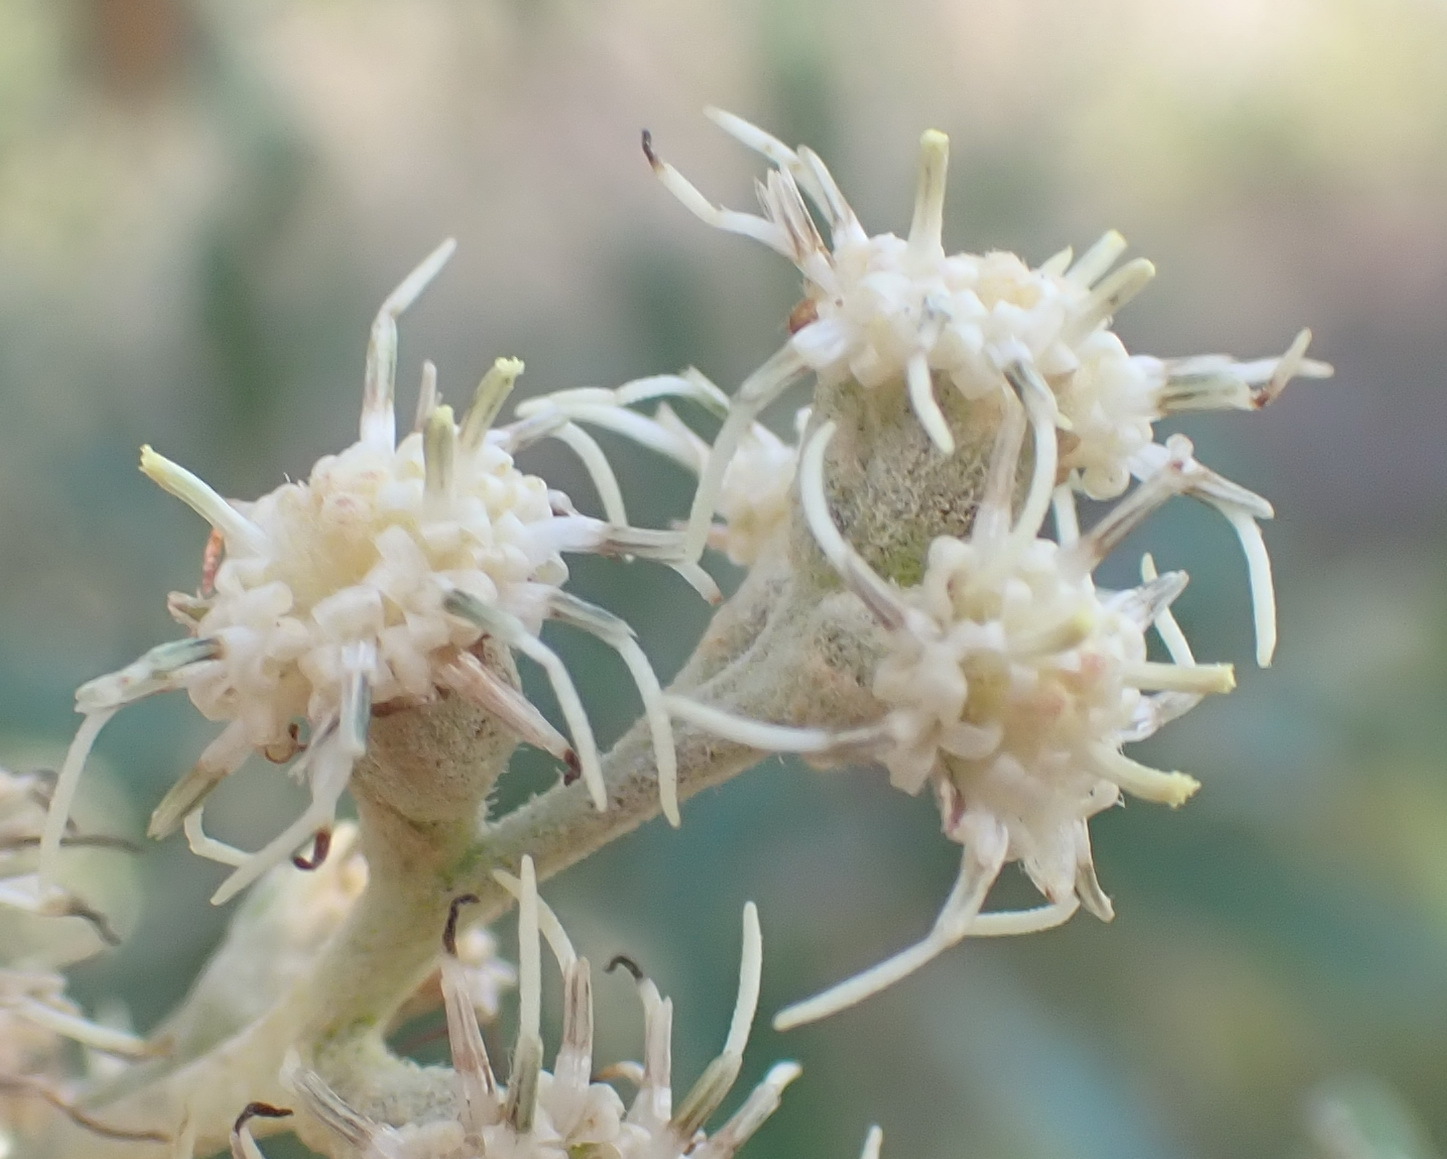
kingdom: Plantae
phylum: Tracheophyta
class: Magnoliopsida
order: Asterales
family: Asteraceae
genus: Tarchonanthus
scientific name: Tarchonanthus littoralis
